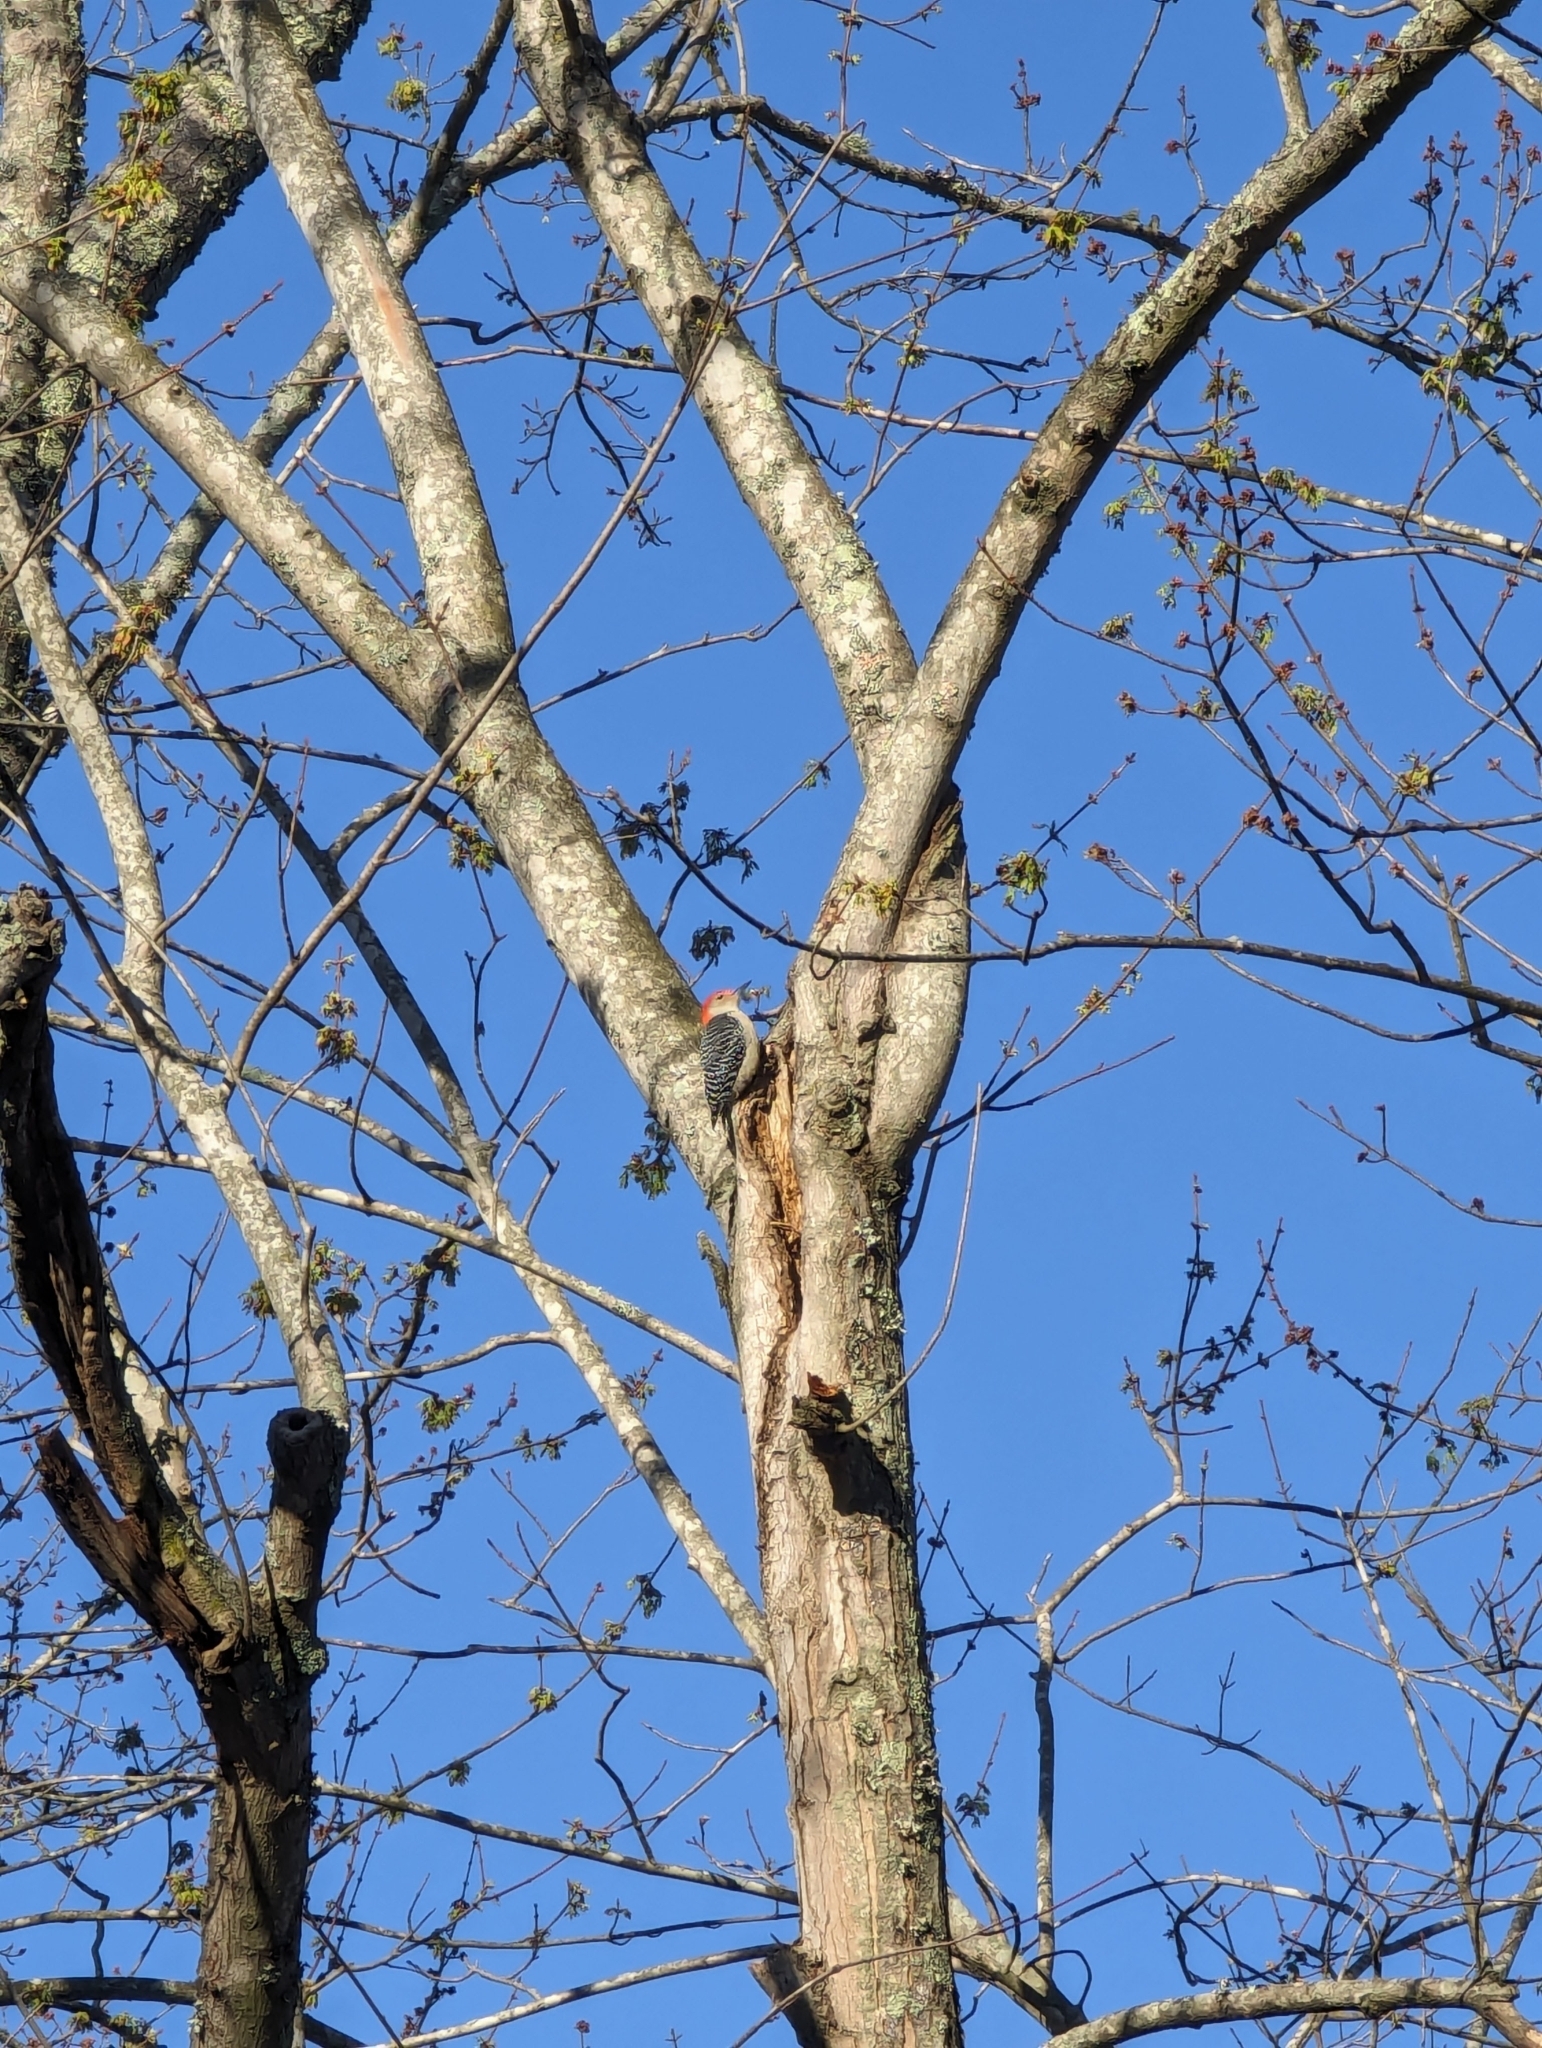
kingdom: Animalia
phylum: Chordata
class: Aves
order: Piciformes
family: Picidae
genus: Melanerpes
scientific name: Melanerpes carolinus
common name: Red-bellied woodpecker
